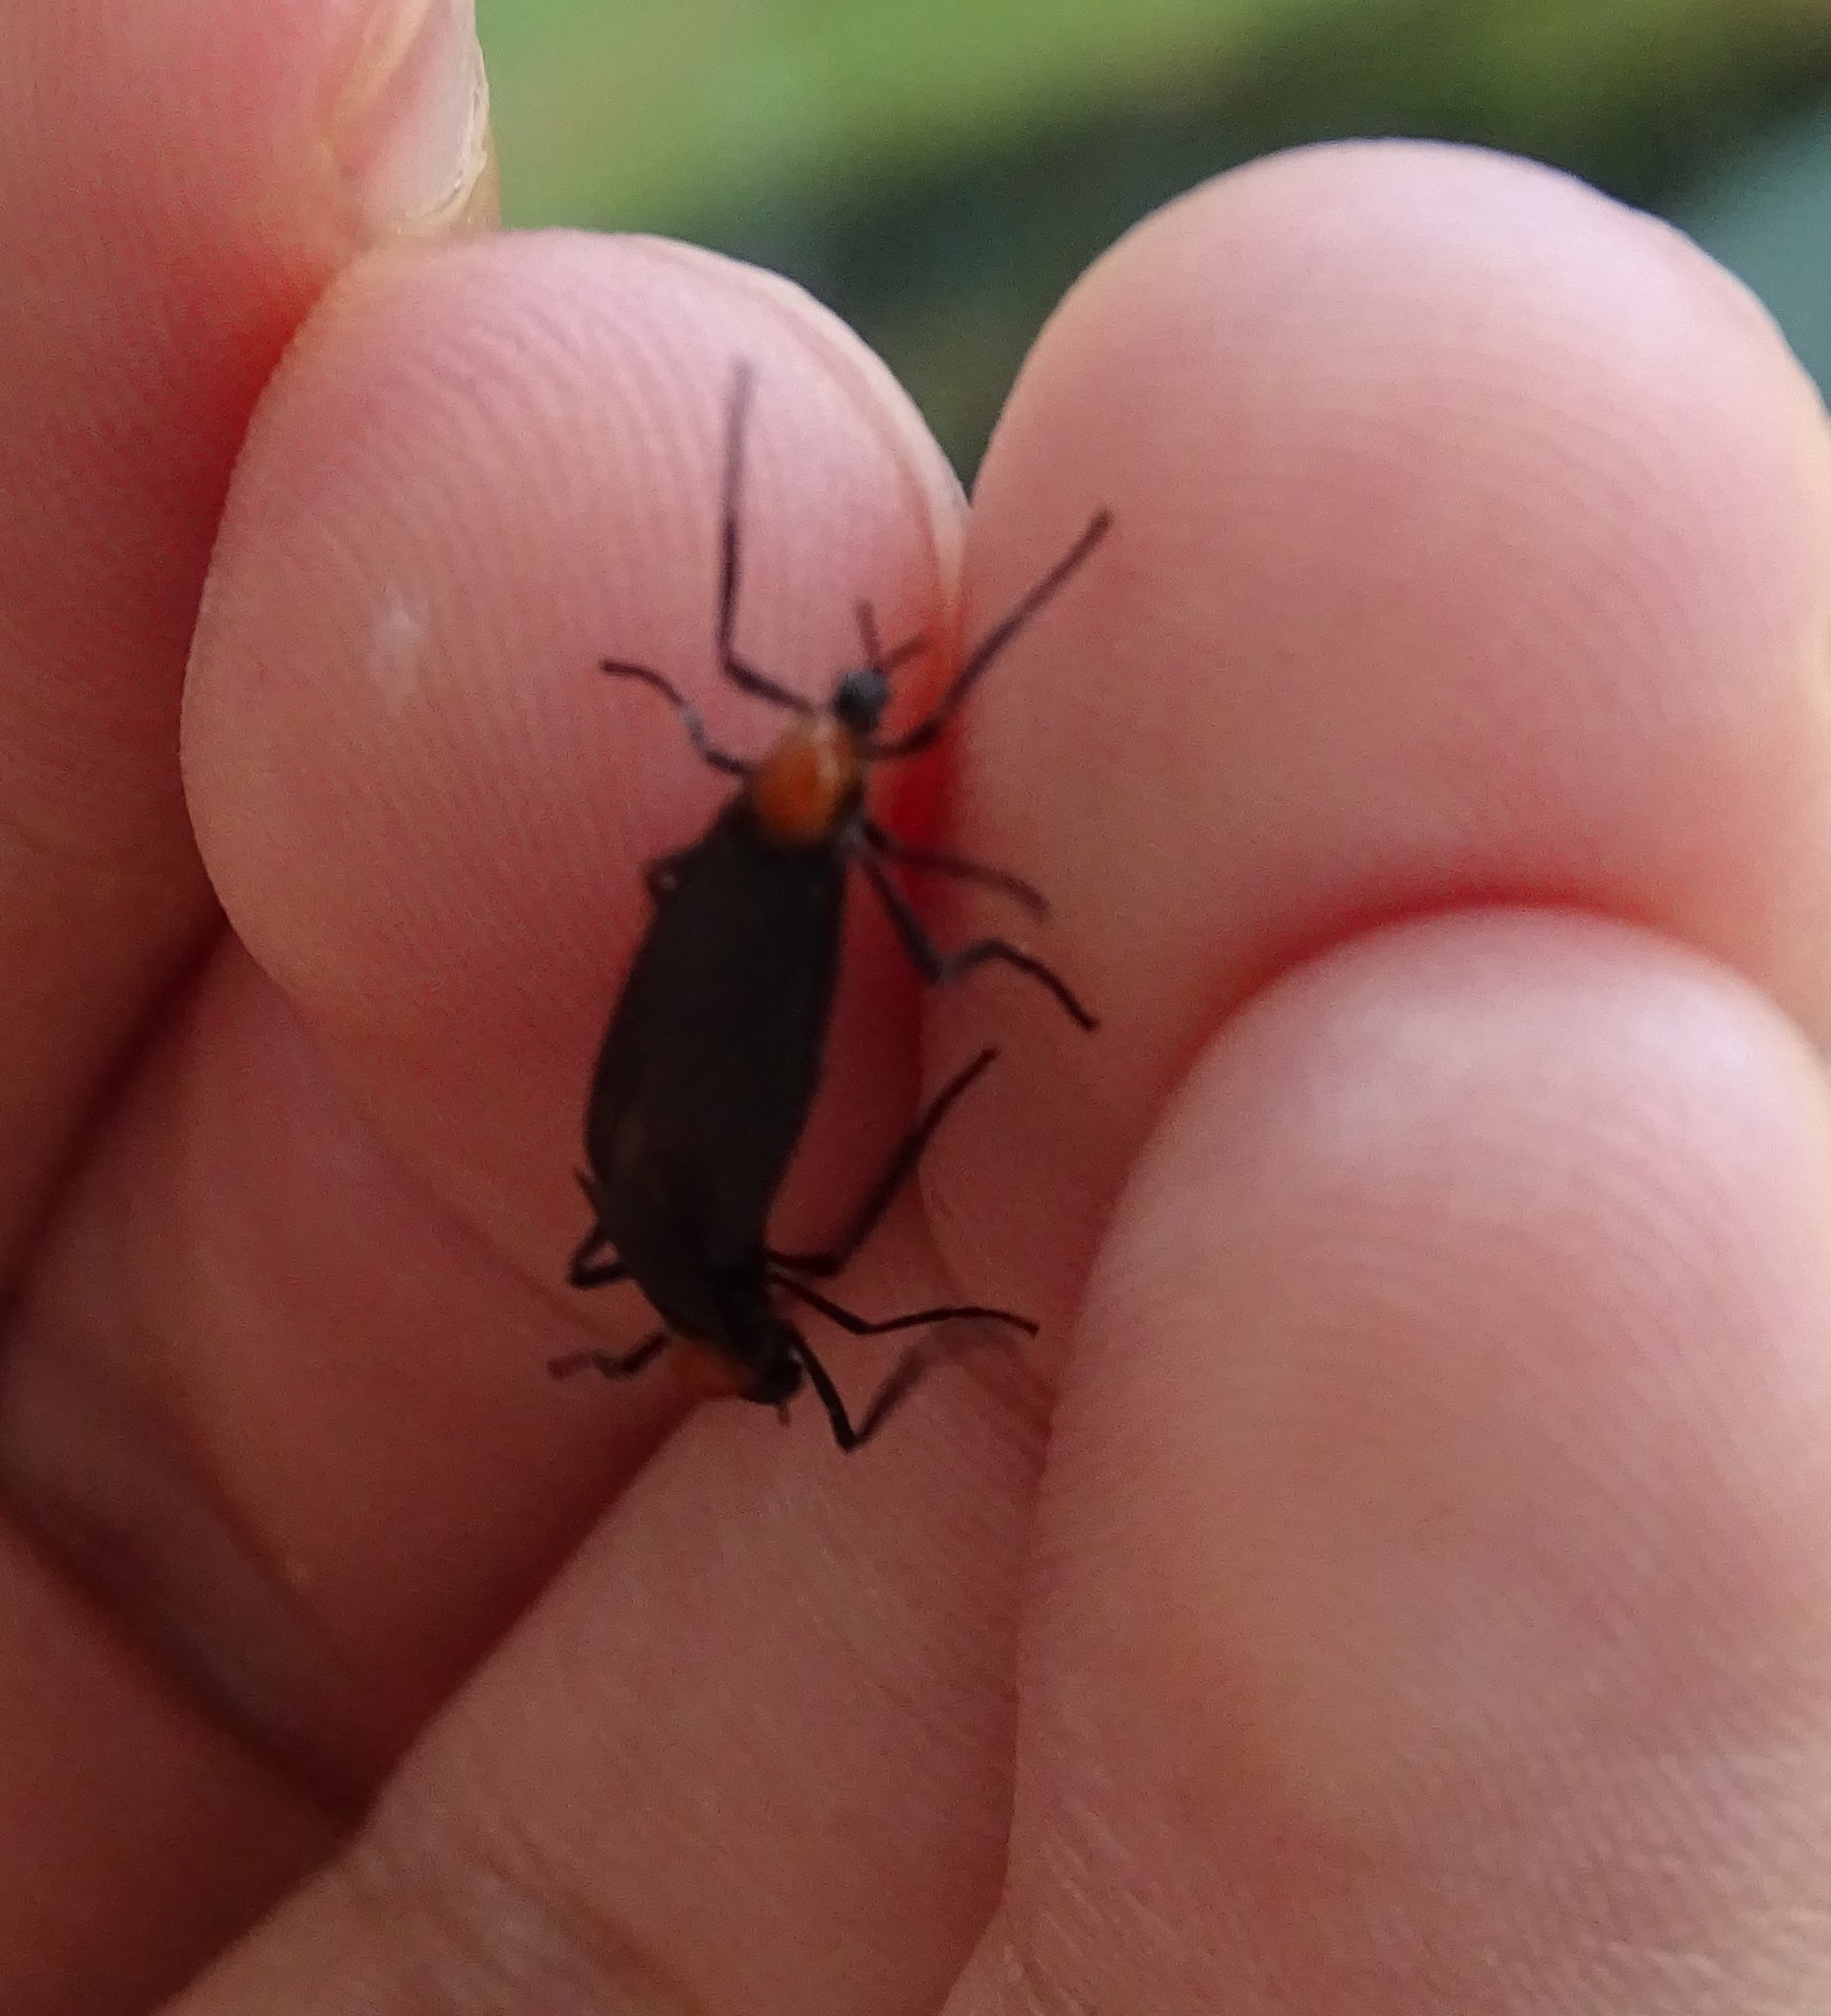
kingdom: Animalia
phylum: Arthropoda
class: Insecta
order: Diptera
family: Bibionidae
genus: Plecia
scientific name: Plecia nearctica
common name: March fly
